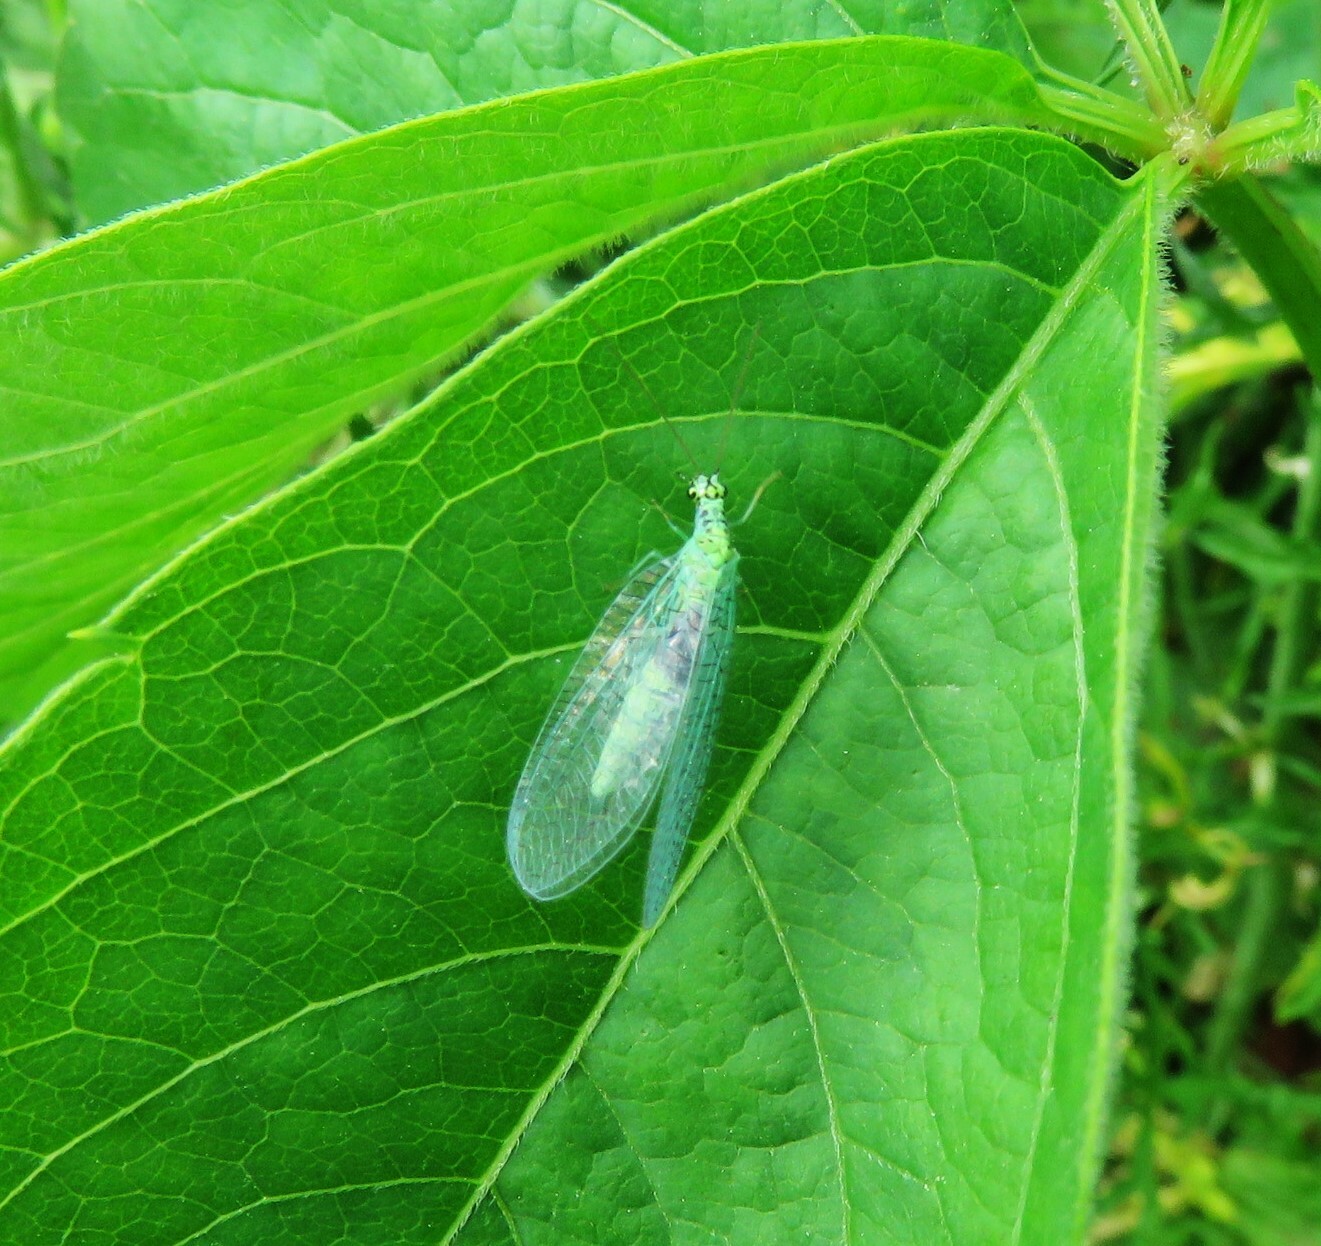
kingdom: Animalia
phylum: Arthropoda
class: Insecta
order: Neuroptera
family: Chrysopidae
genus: Chrysopa
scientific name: Chrysopa chi
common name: X-marked green lacewing
